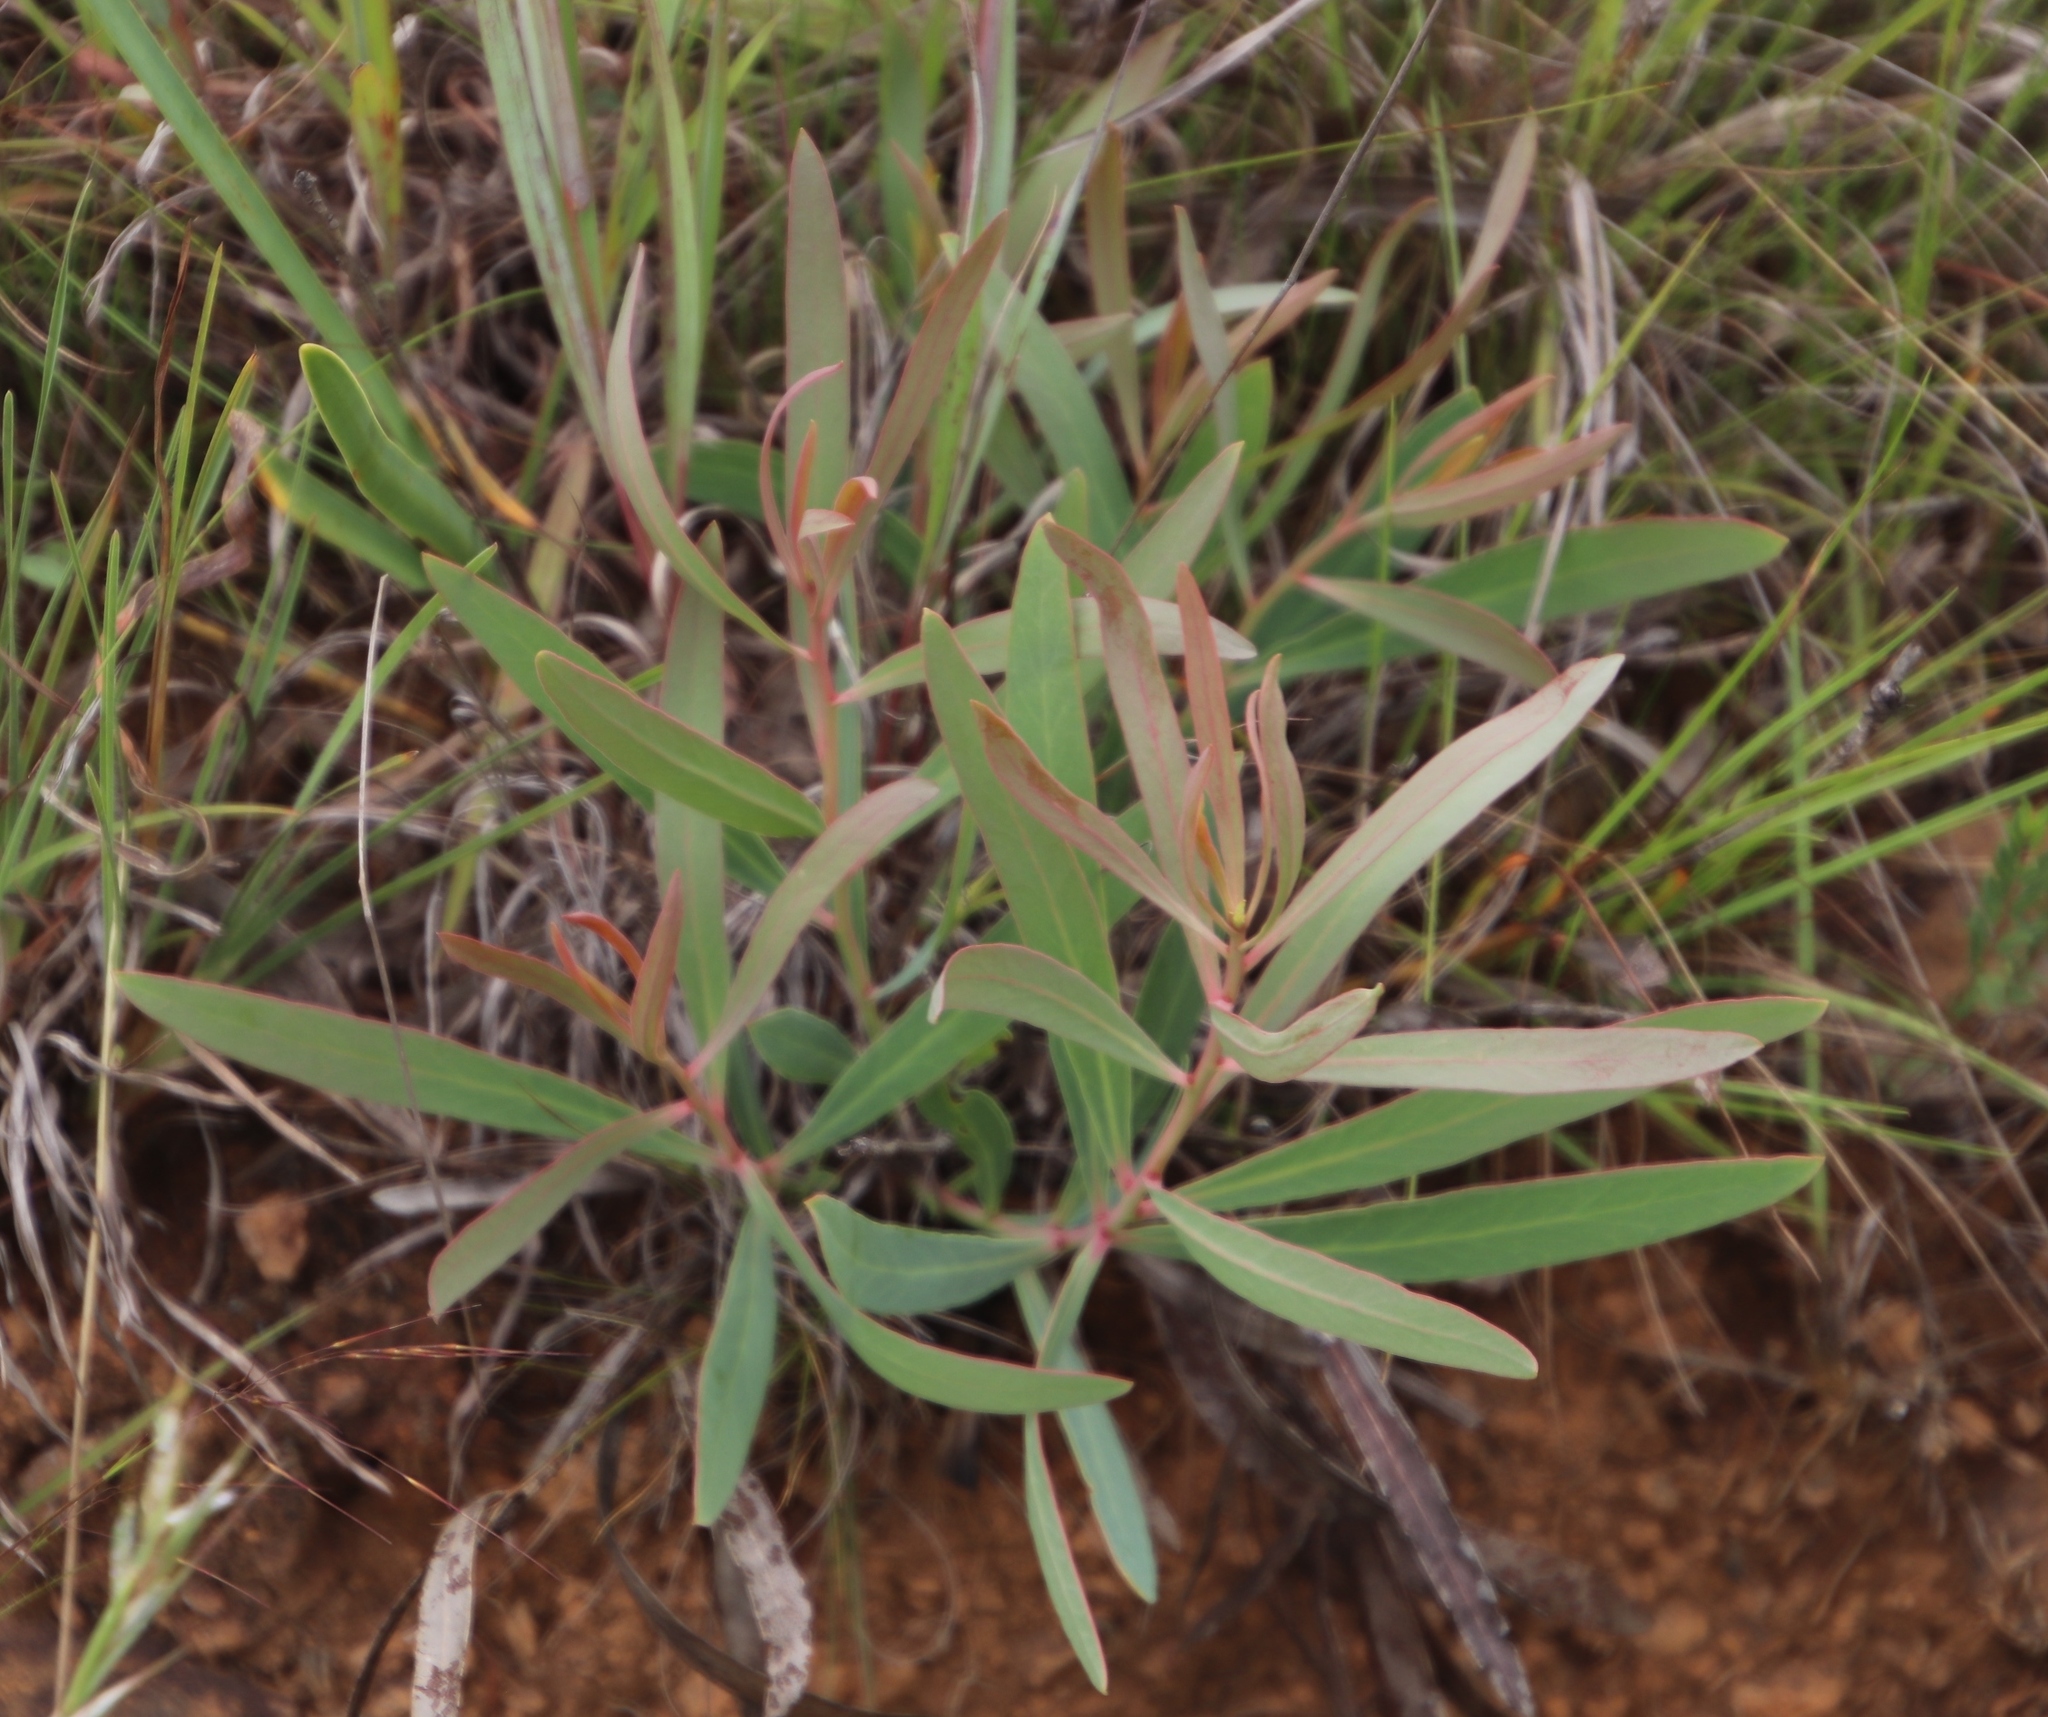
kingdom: Plantae
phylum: Tracheophyta
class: Magnoliopsida
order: Proteales
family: Proteaceae
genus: Protea
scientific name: Protea simplex
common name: Dwarf grassveld sugarbush
